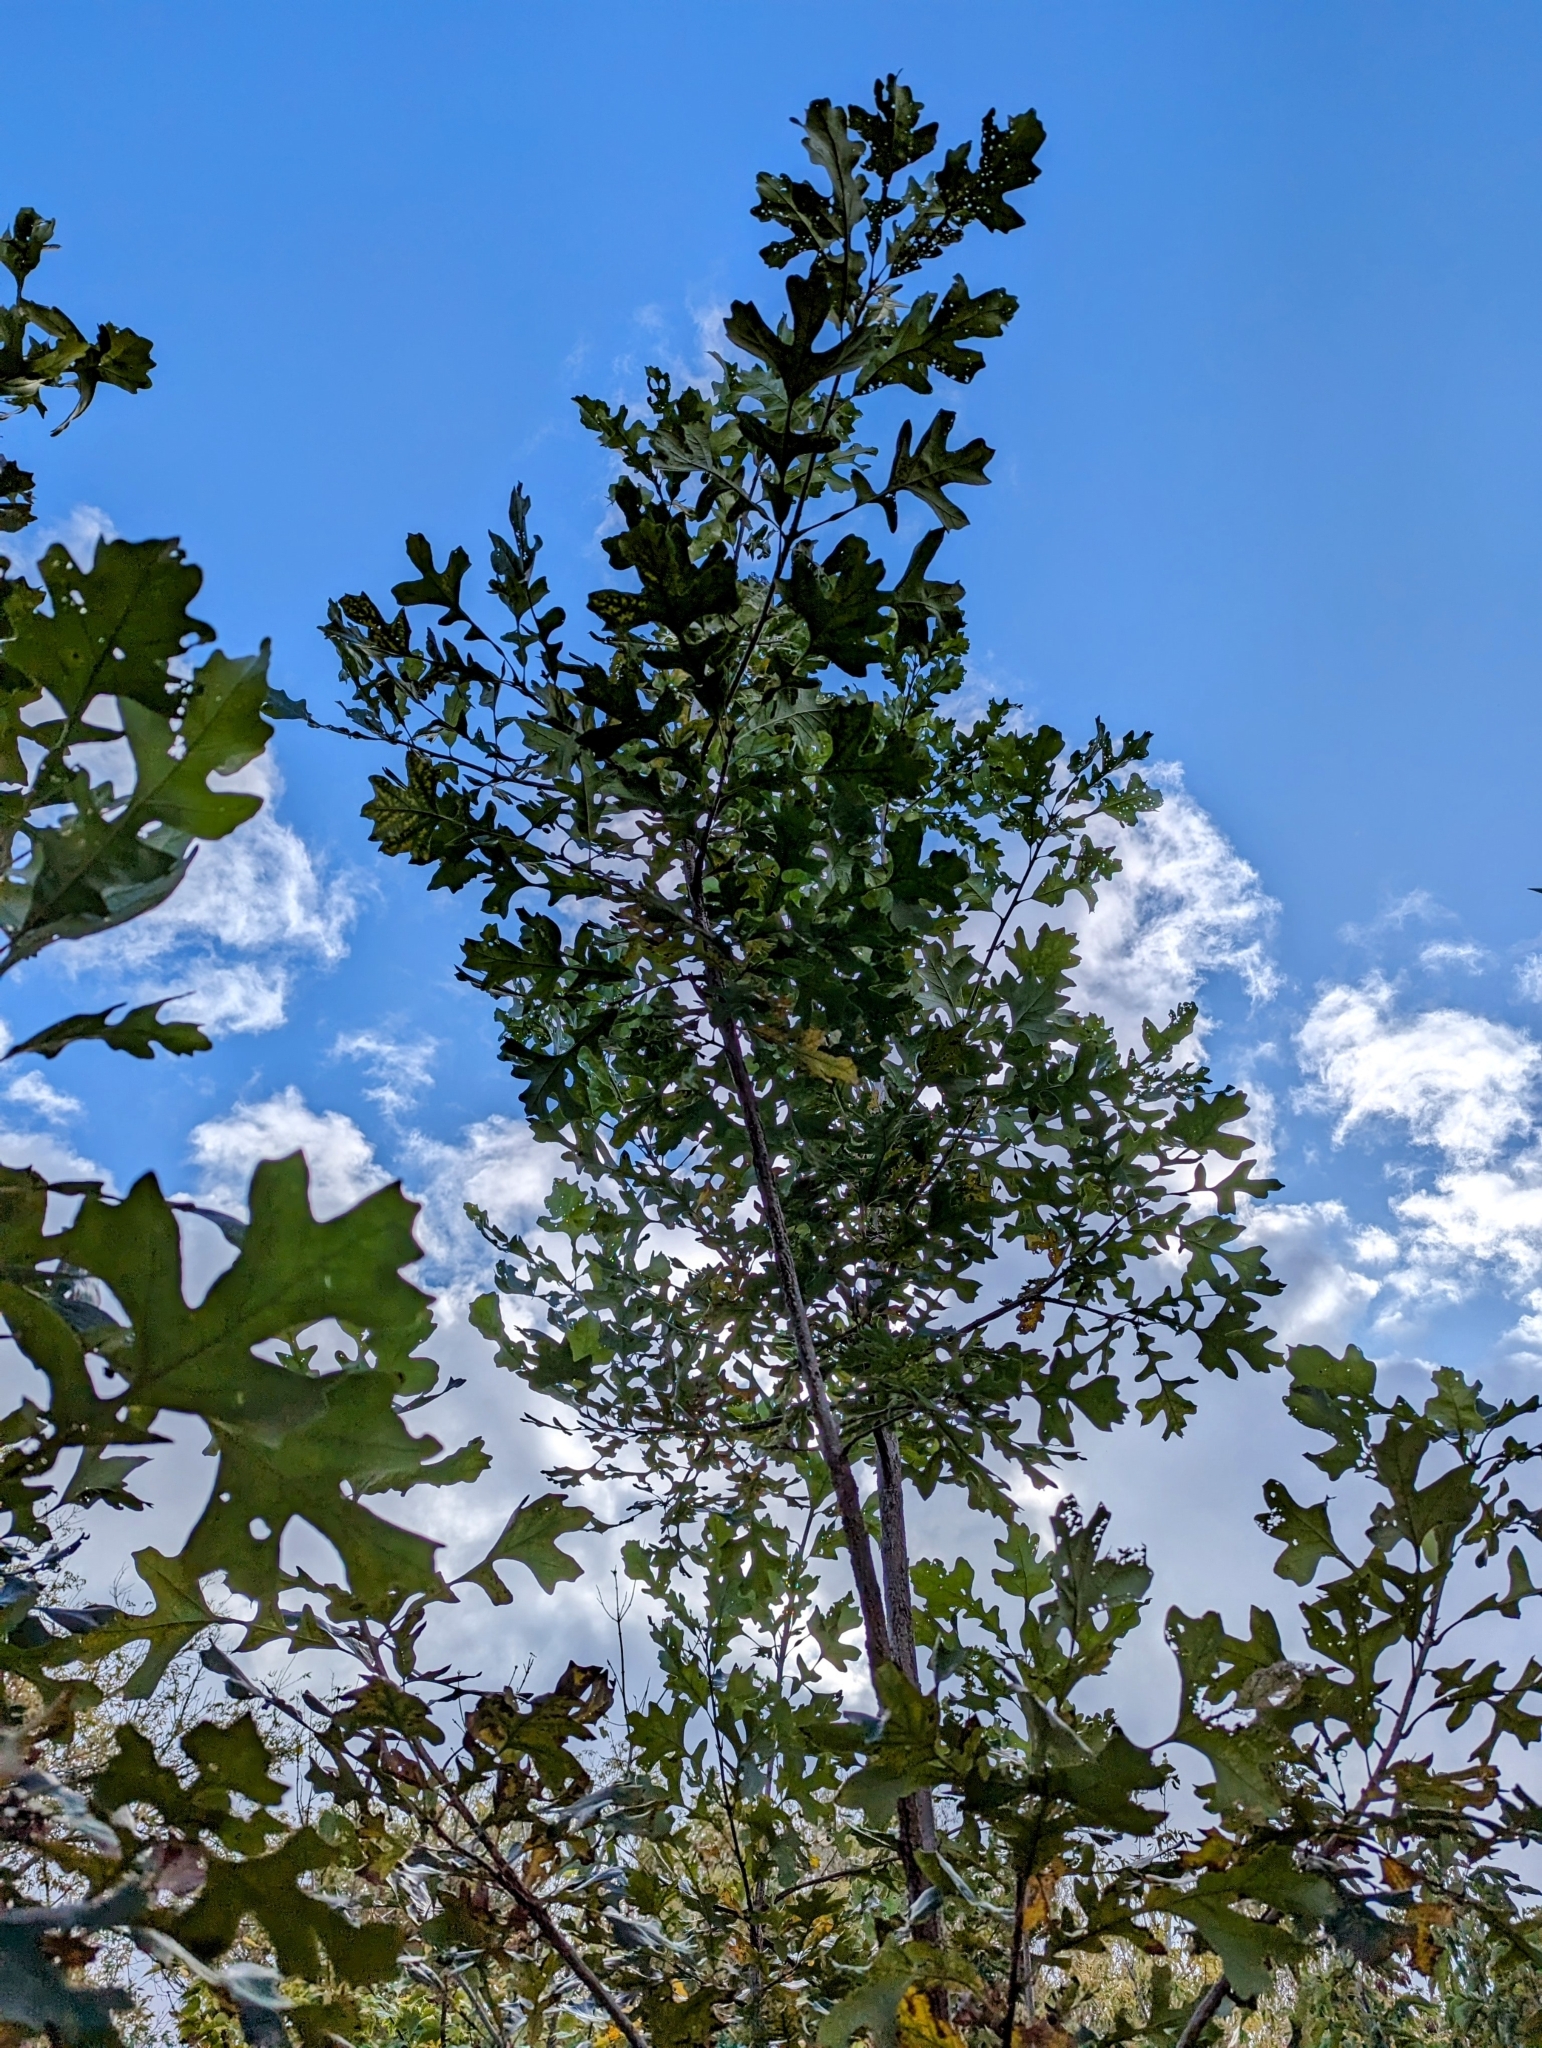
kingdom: Plantae
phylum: Tracheophyta
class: Magnoliopsida
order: Fagales
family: Fagaceae
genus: Quercus
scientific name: Quercus macrocarpa
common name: Bur oak
